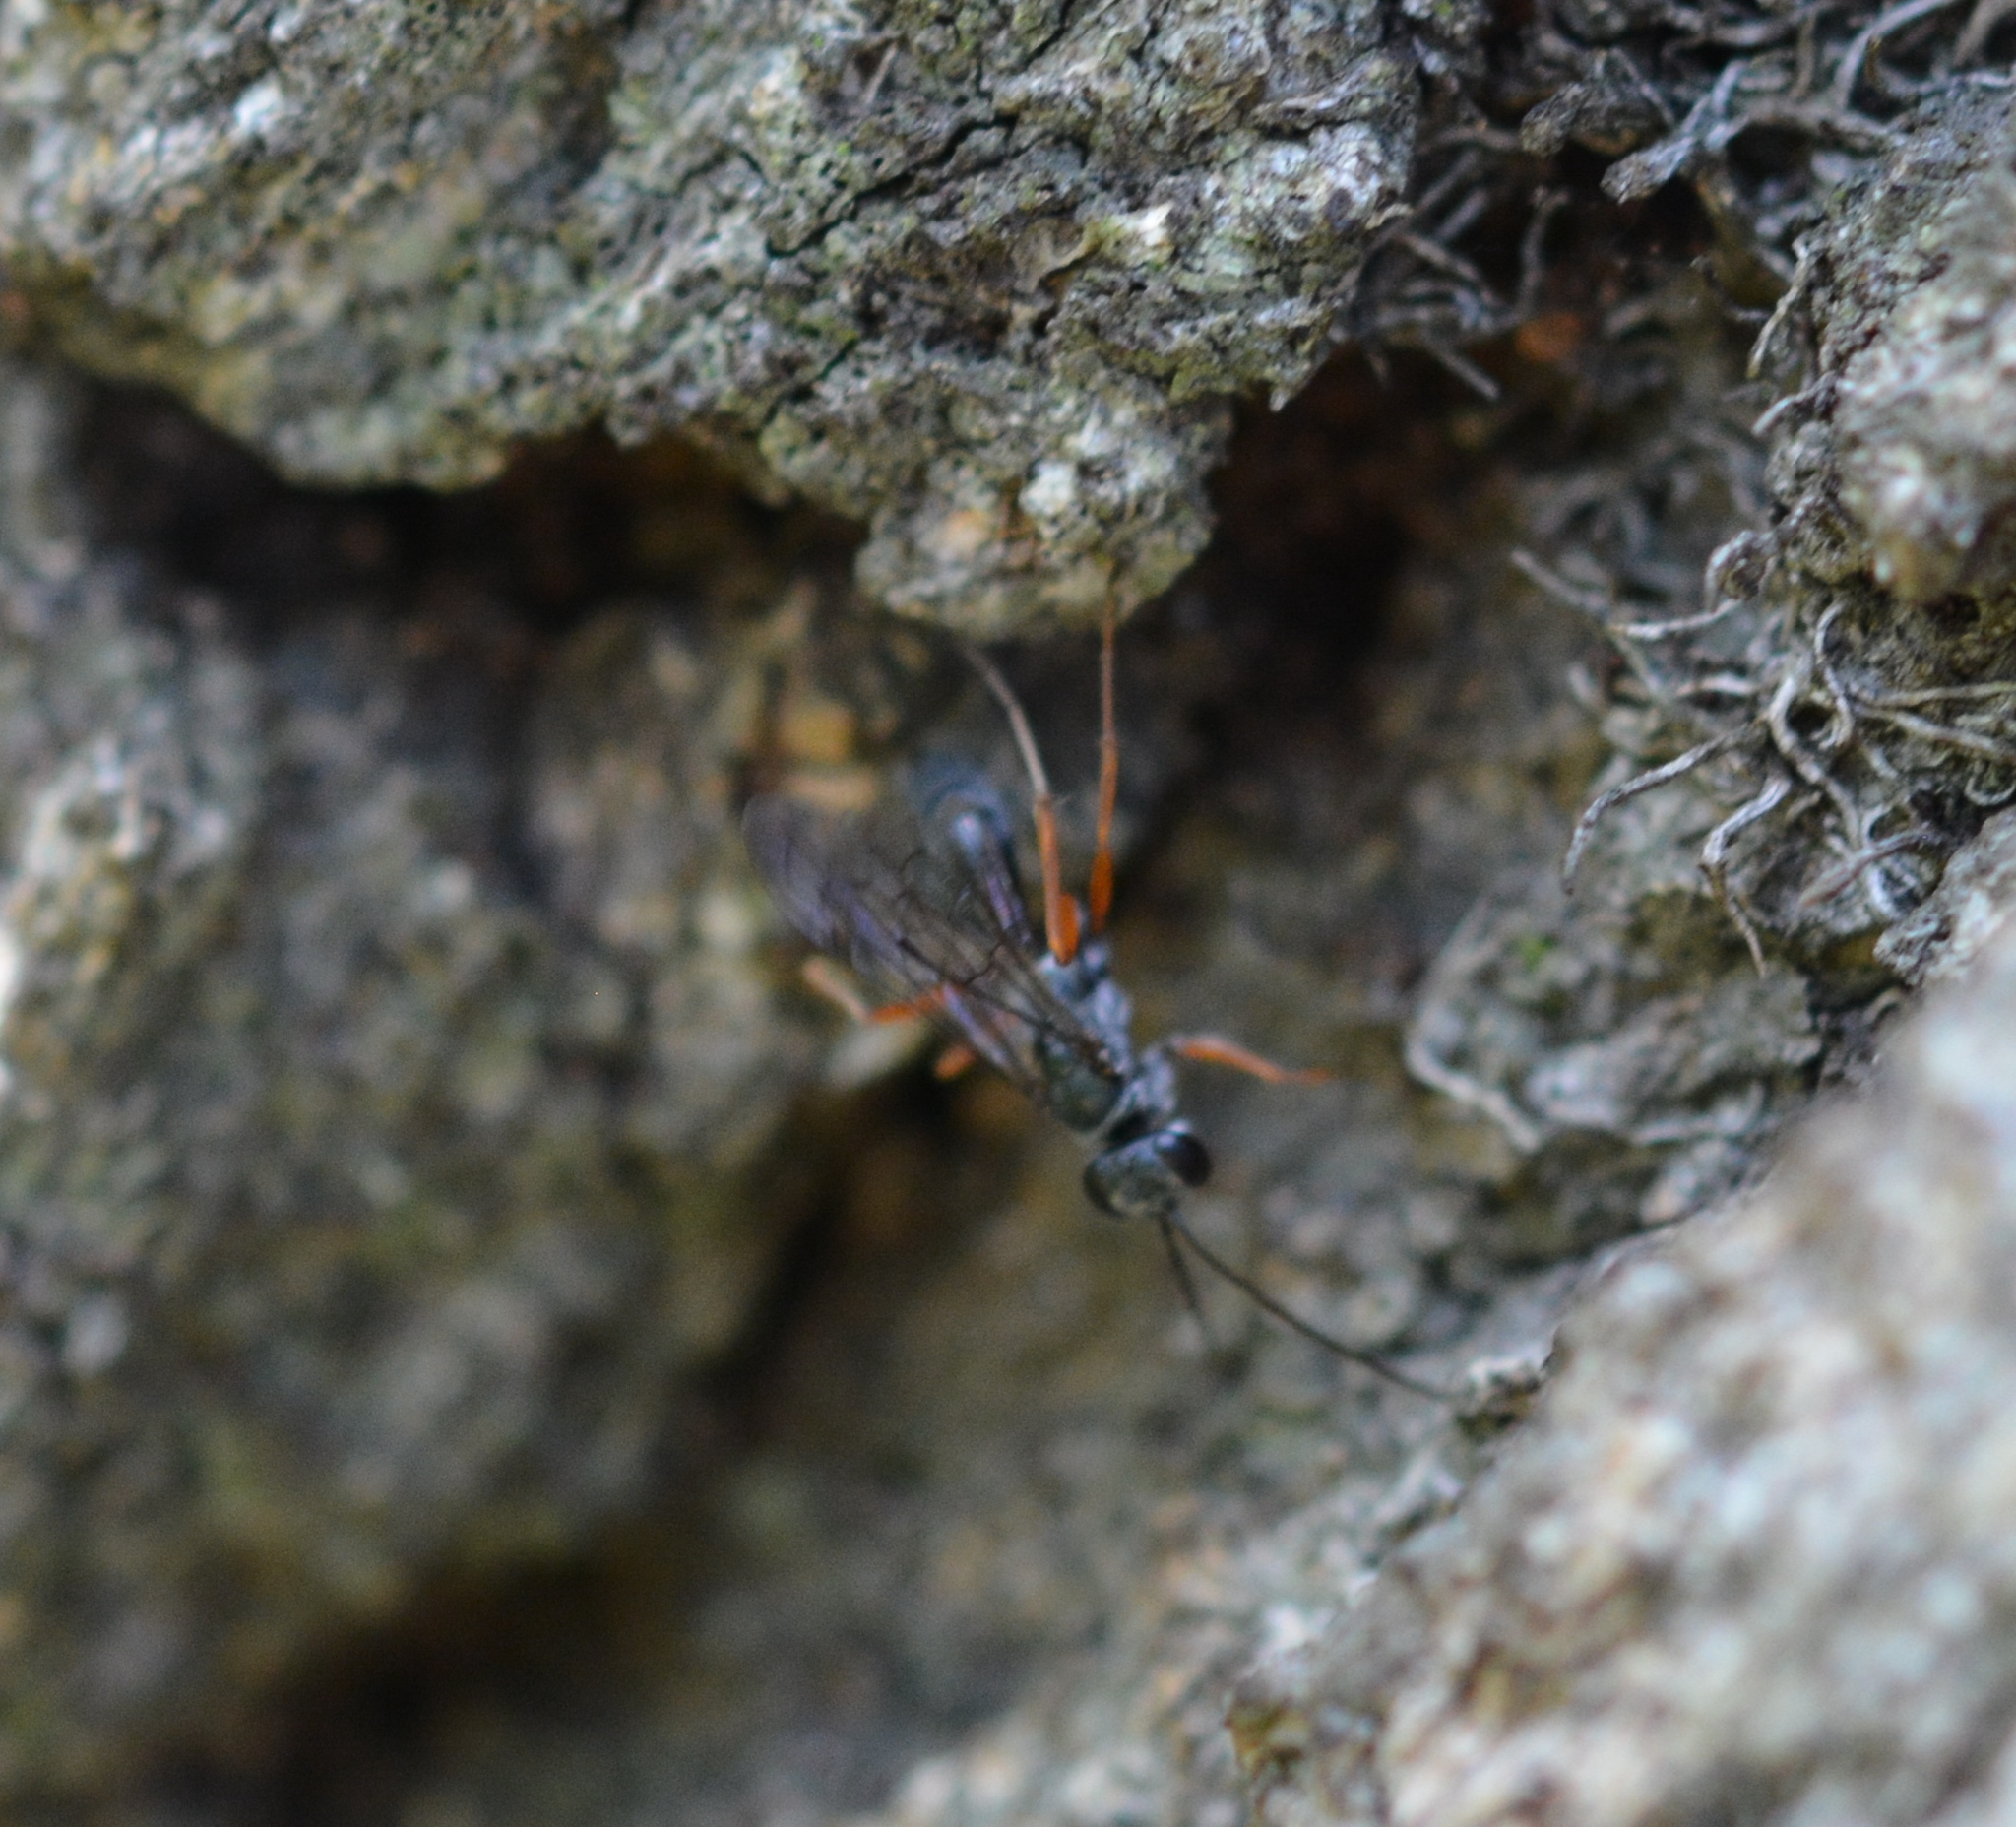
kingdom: Animalia
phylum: Arthropoda
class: Insecta
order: Hymenoptera
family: Pompilidae
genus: Auplopus
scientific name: Auplopus mellipes
